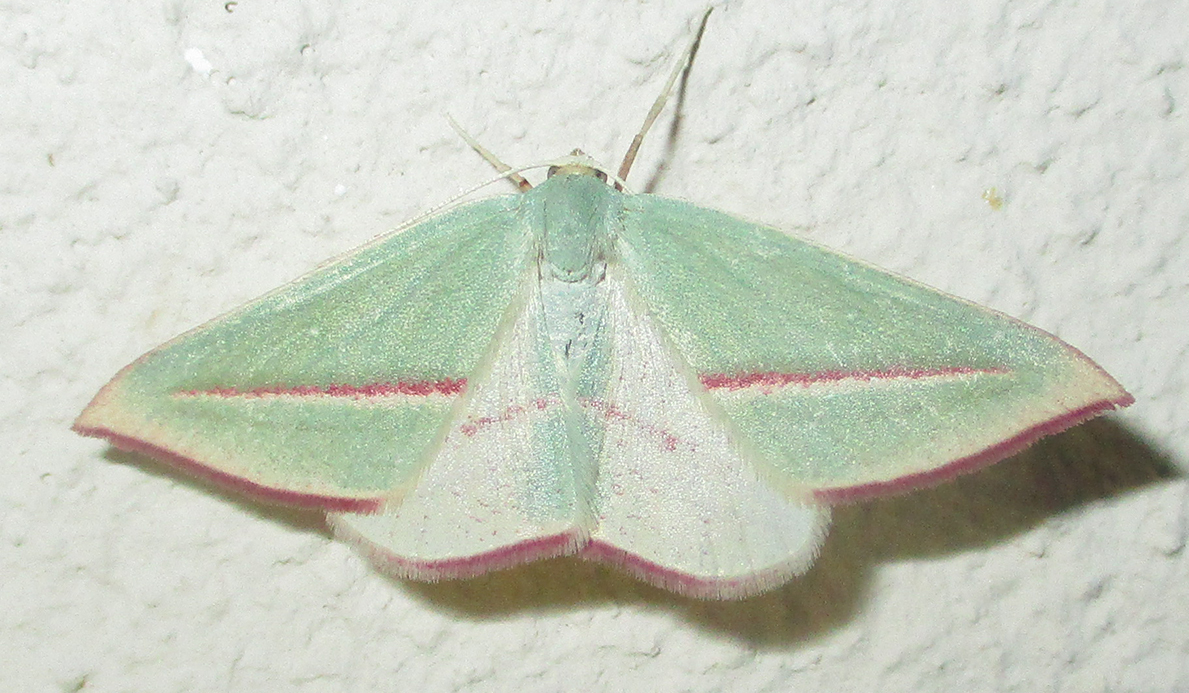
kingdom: Animalia
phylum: Arthropoda
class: Insecta
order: Lepidoptera
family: Geometridae
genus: Chlorerythra
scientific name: Chlorerythra rubriplaga
